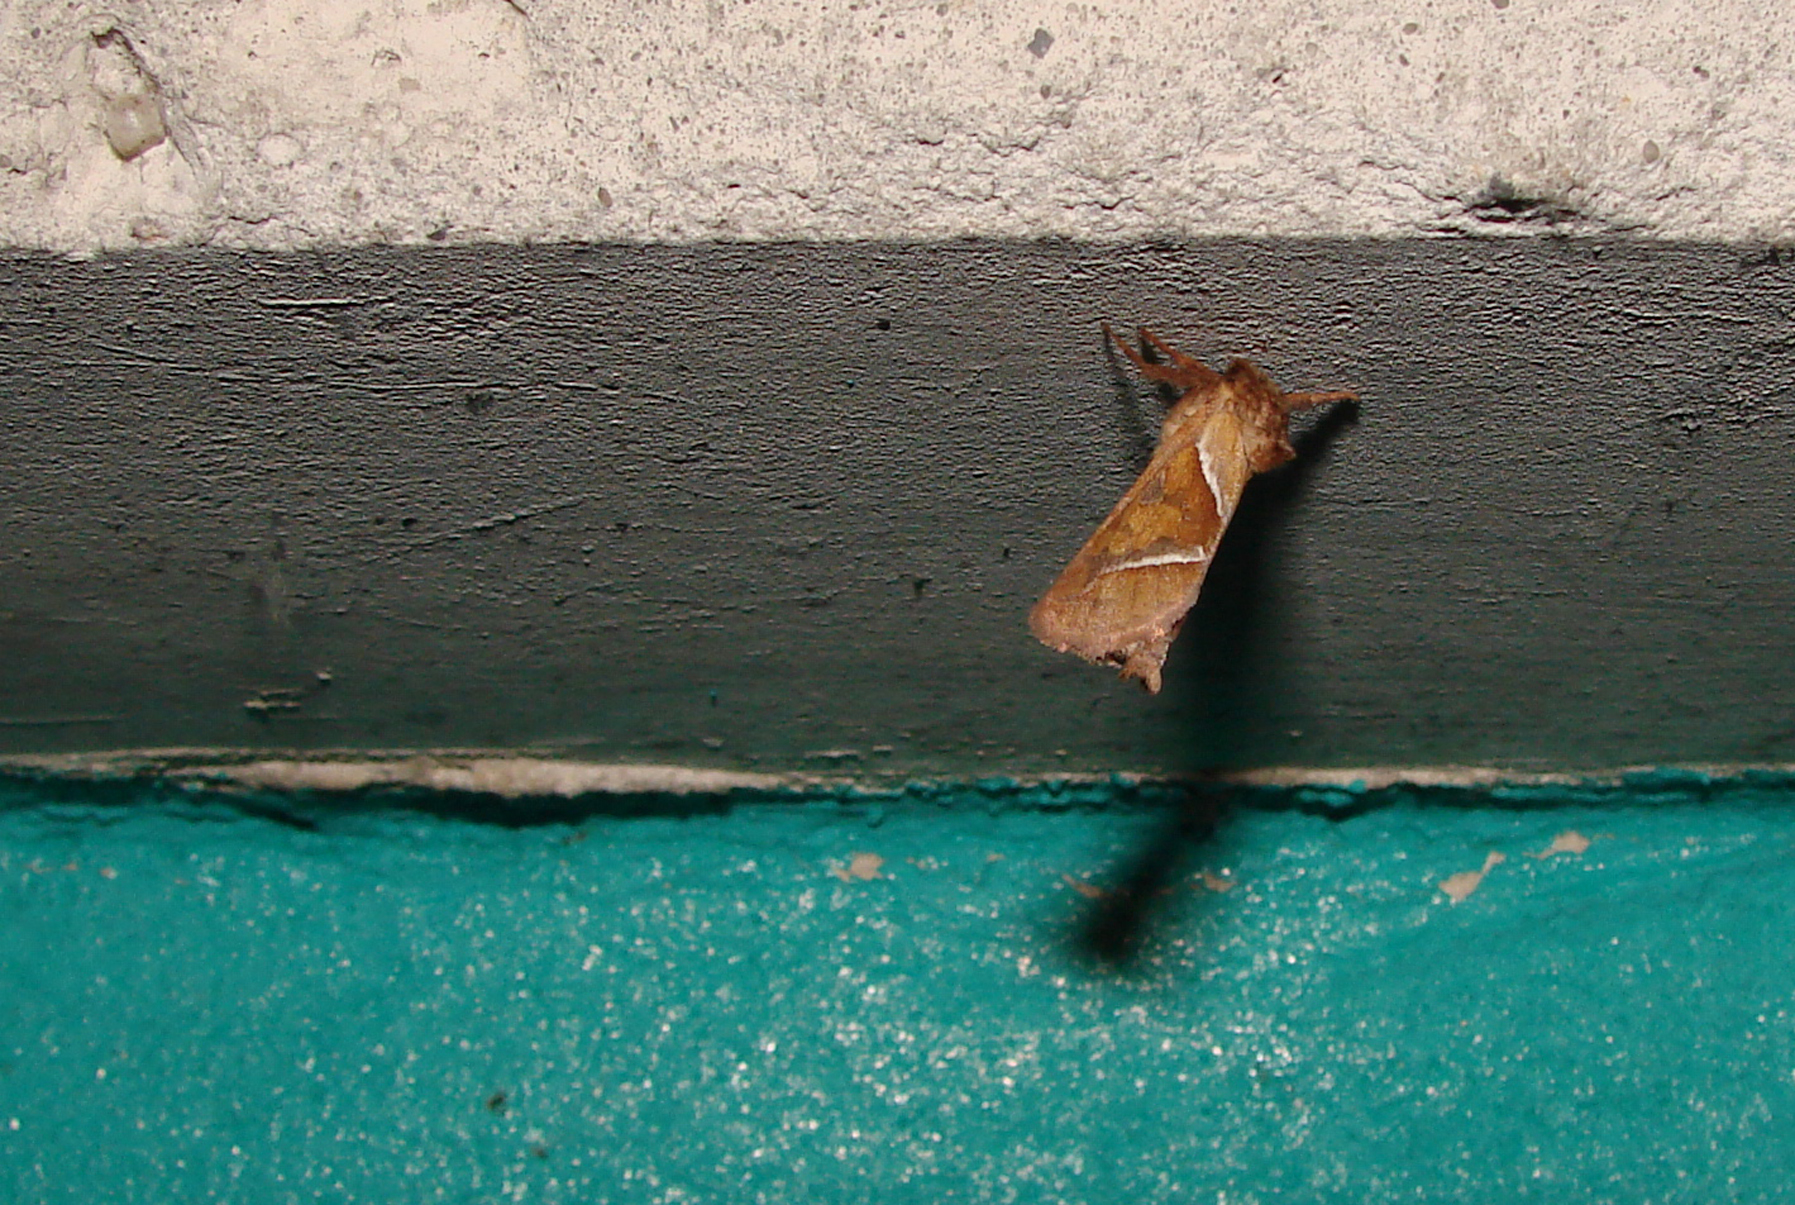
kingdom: Animalia
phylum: Arthropoda
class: Insecta
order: Lepidoptera
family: Hepialidae
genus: Triodia
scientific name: Triodia sylvina
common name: Orange swift
